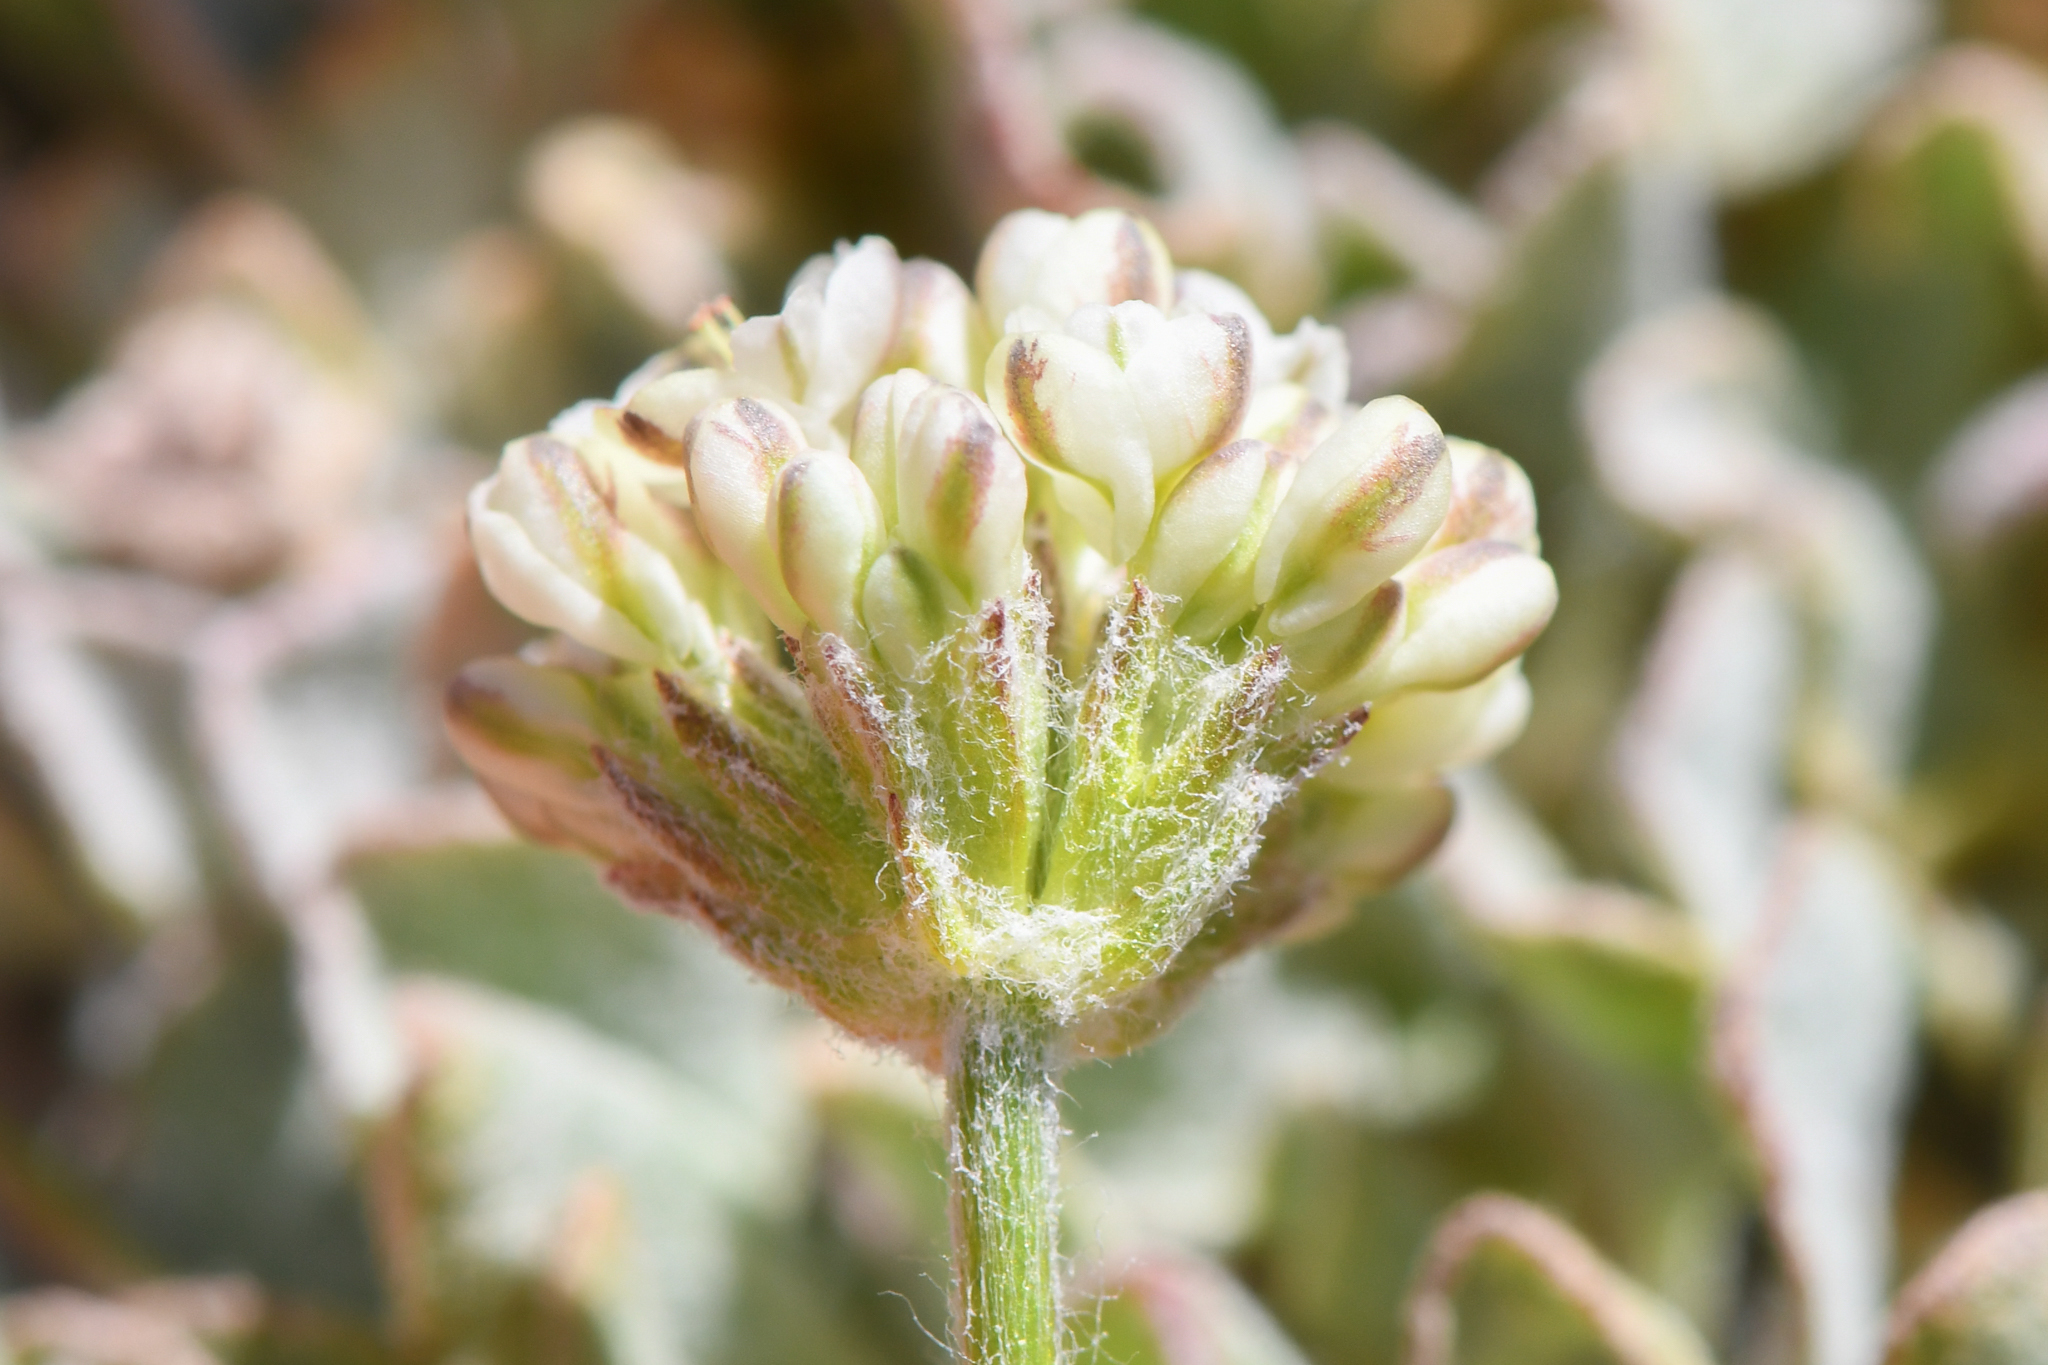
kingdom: Plantae
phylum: Tracheophyta
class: Magnoliopsida
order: Caryophyllales
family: Polygonaceae
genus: Eriogonum
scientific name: Eriogonum ovalifolium
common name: Cushion buckwheat
